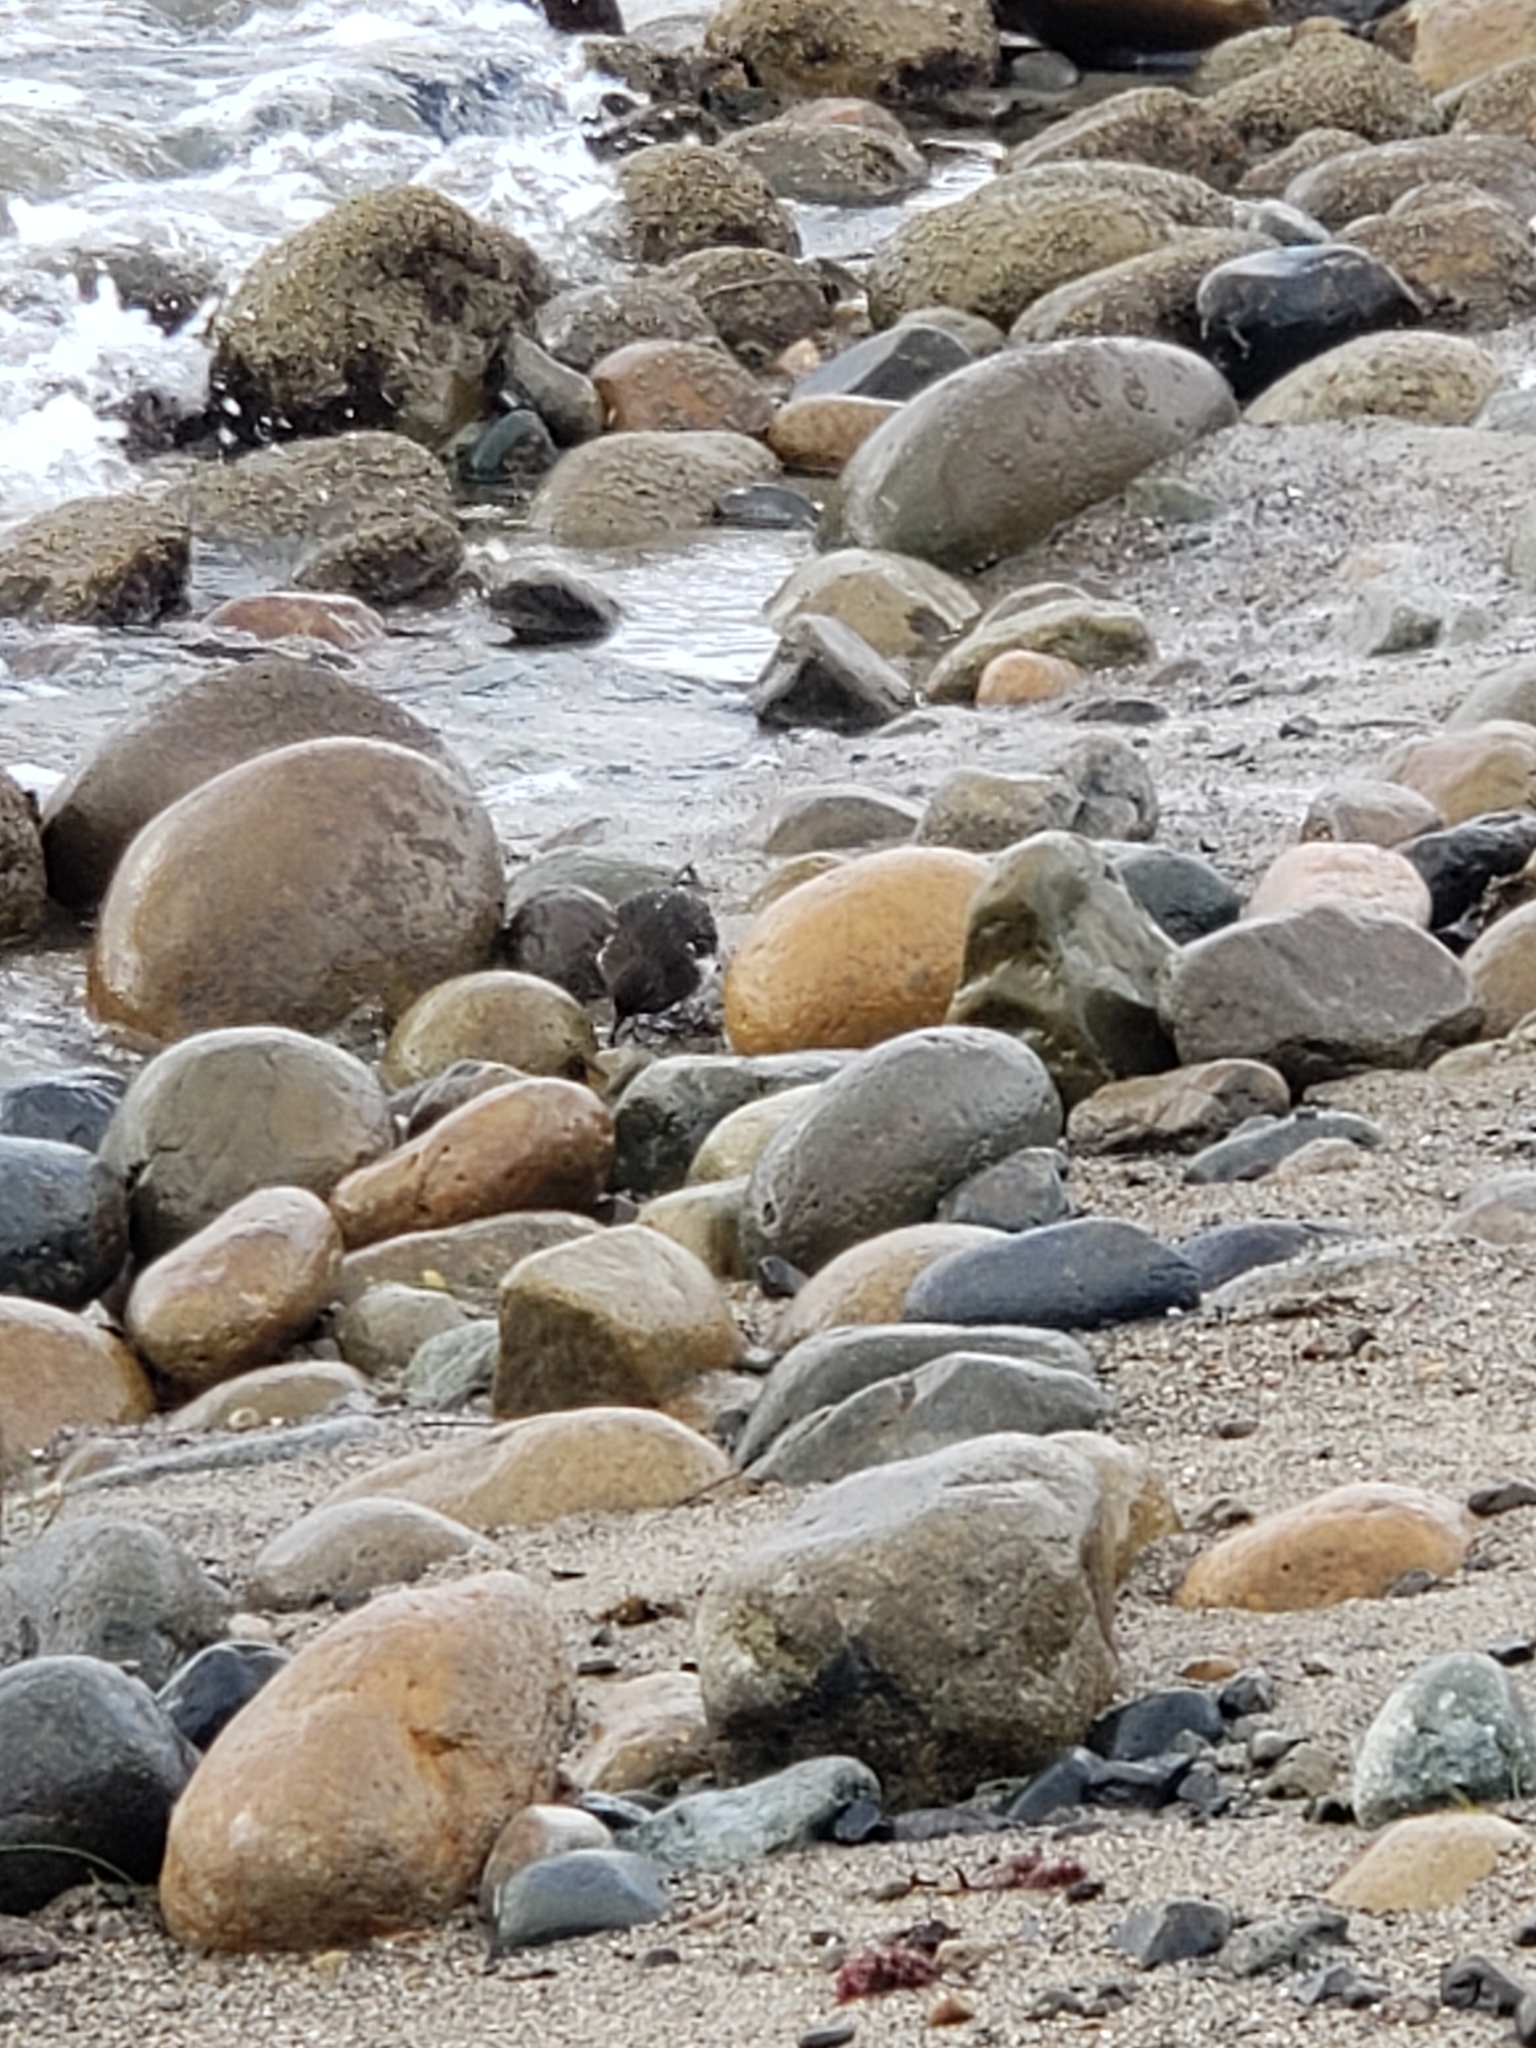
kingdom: Animalia
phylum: Chordata
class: Aves
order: Charadriiformes
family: Scolopacidae
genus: Arenaria
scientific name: Arenaria melanocephala
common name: Black turnstone
